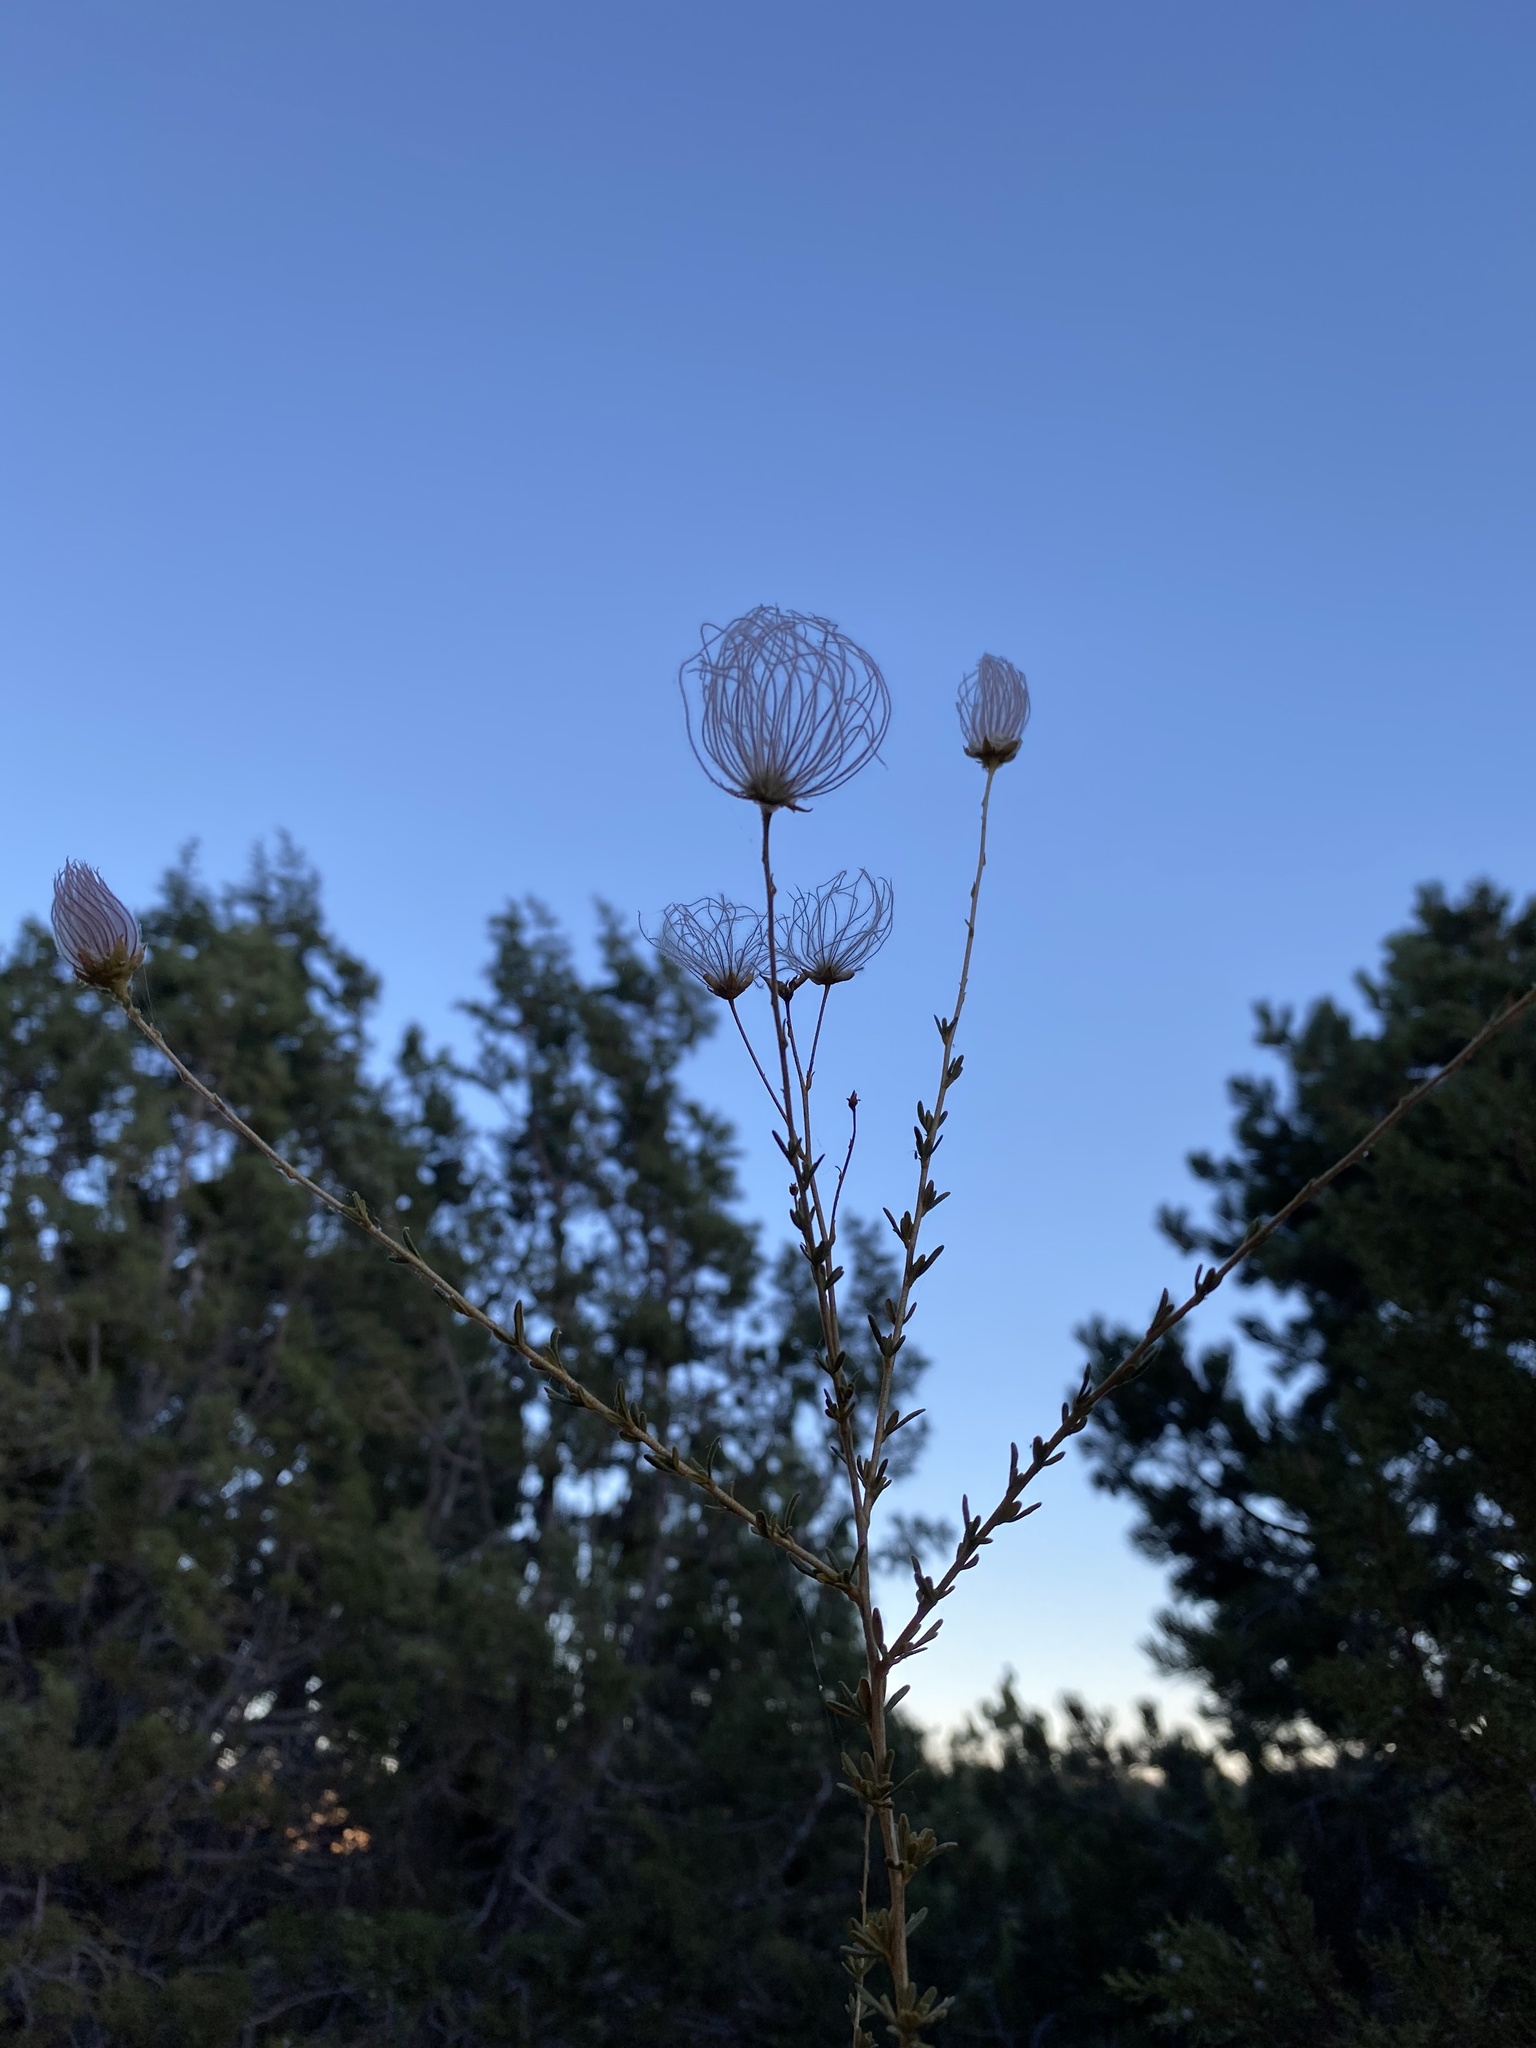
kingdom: Plantae
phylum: Tracheophyta
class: Magnoliopsida
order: Rosales
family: Rosaceae
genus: Fallugia
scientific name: Fallugia paradoxa
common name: Apache-plume
